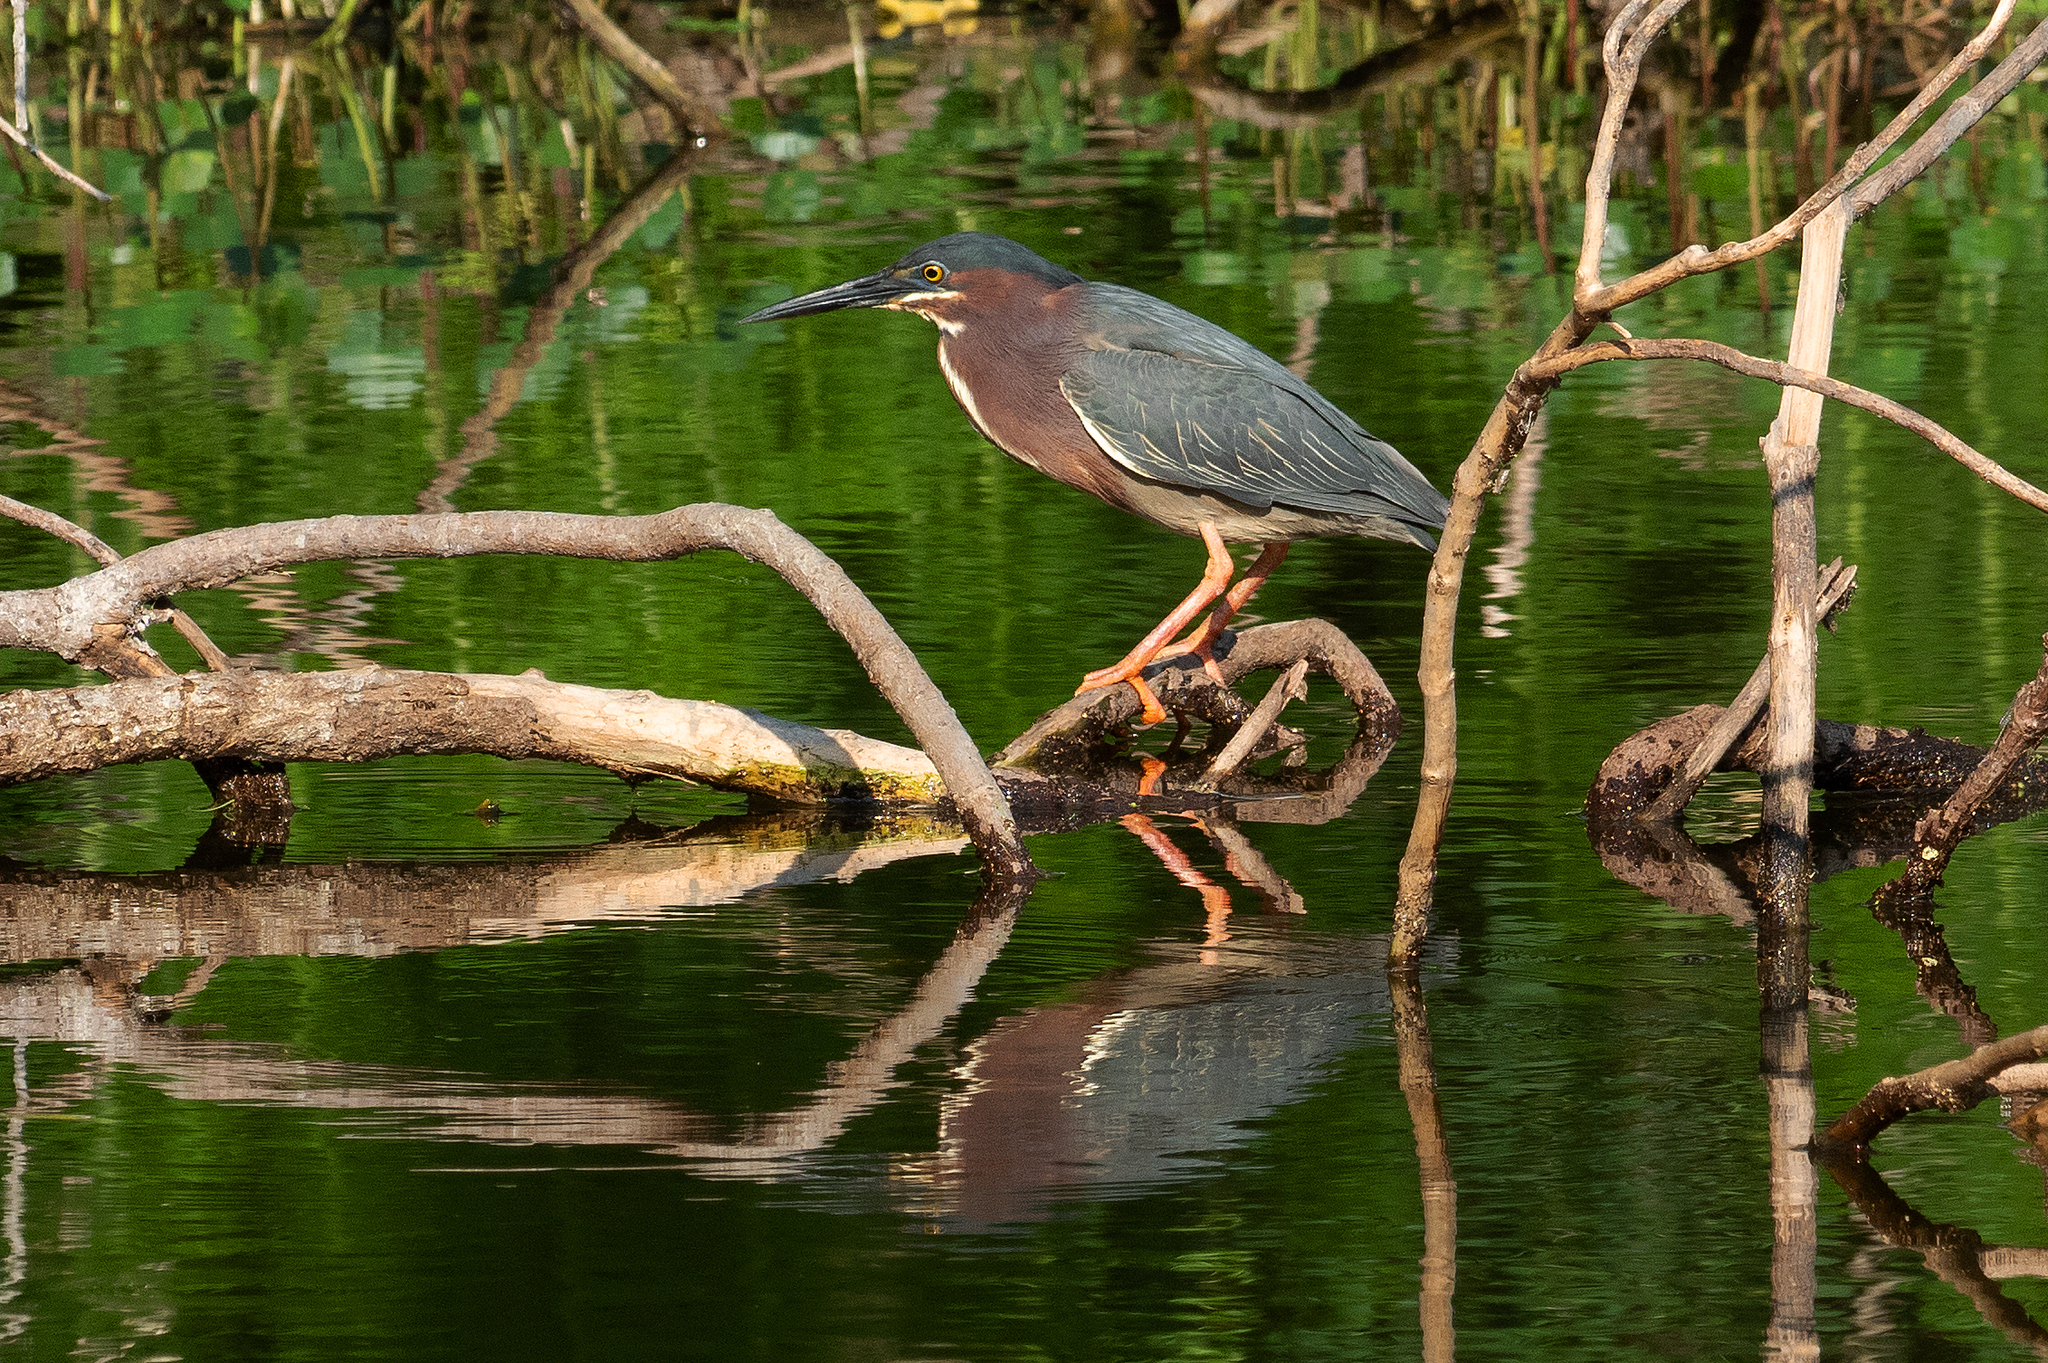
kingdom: Animalia
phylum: Chordata
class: Aves
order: Pelecaniformes
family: Ardeidae
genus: Butorides
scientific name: Butorides virescens
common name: Green heron
